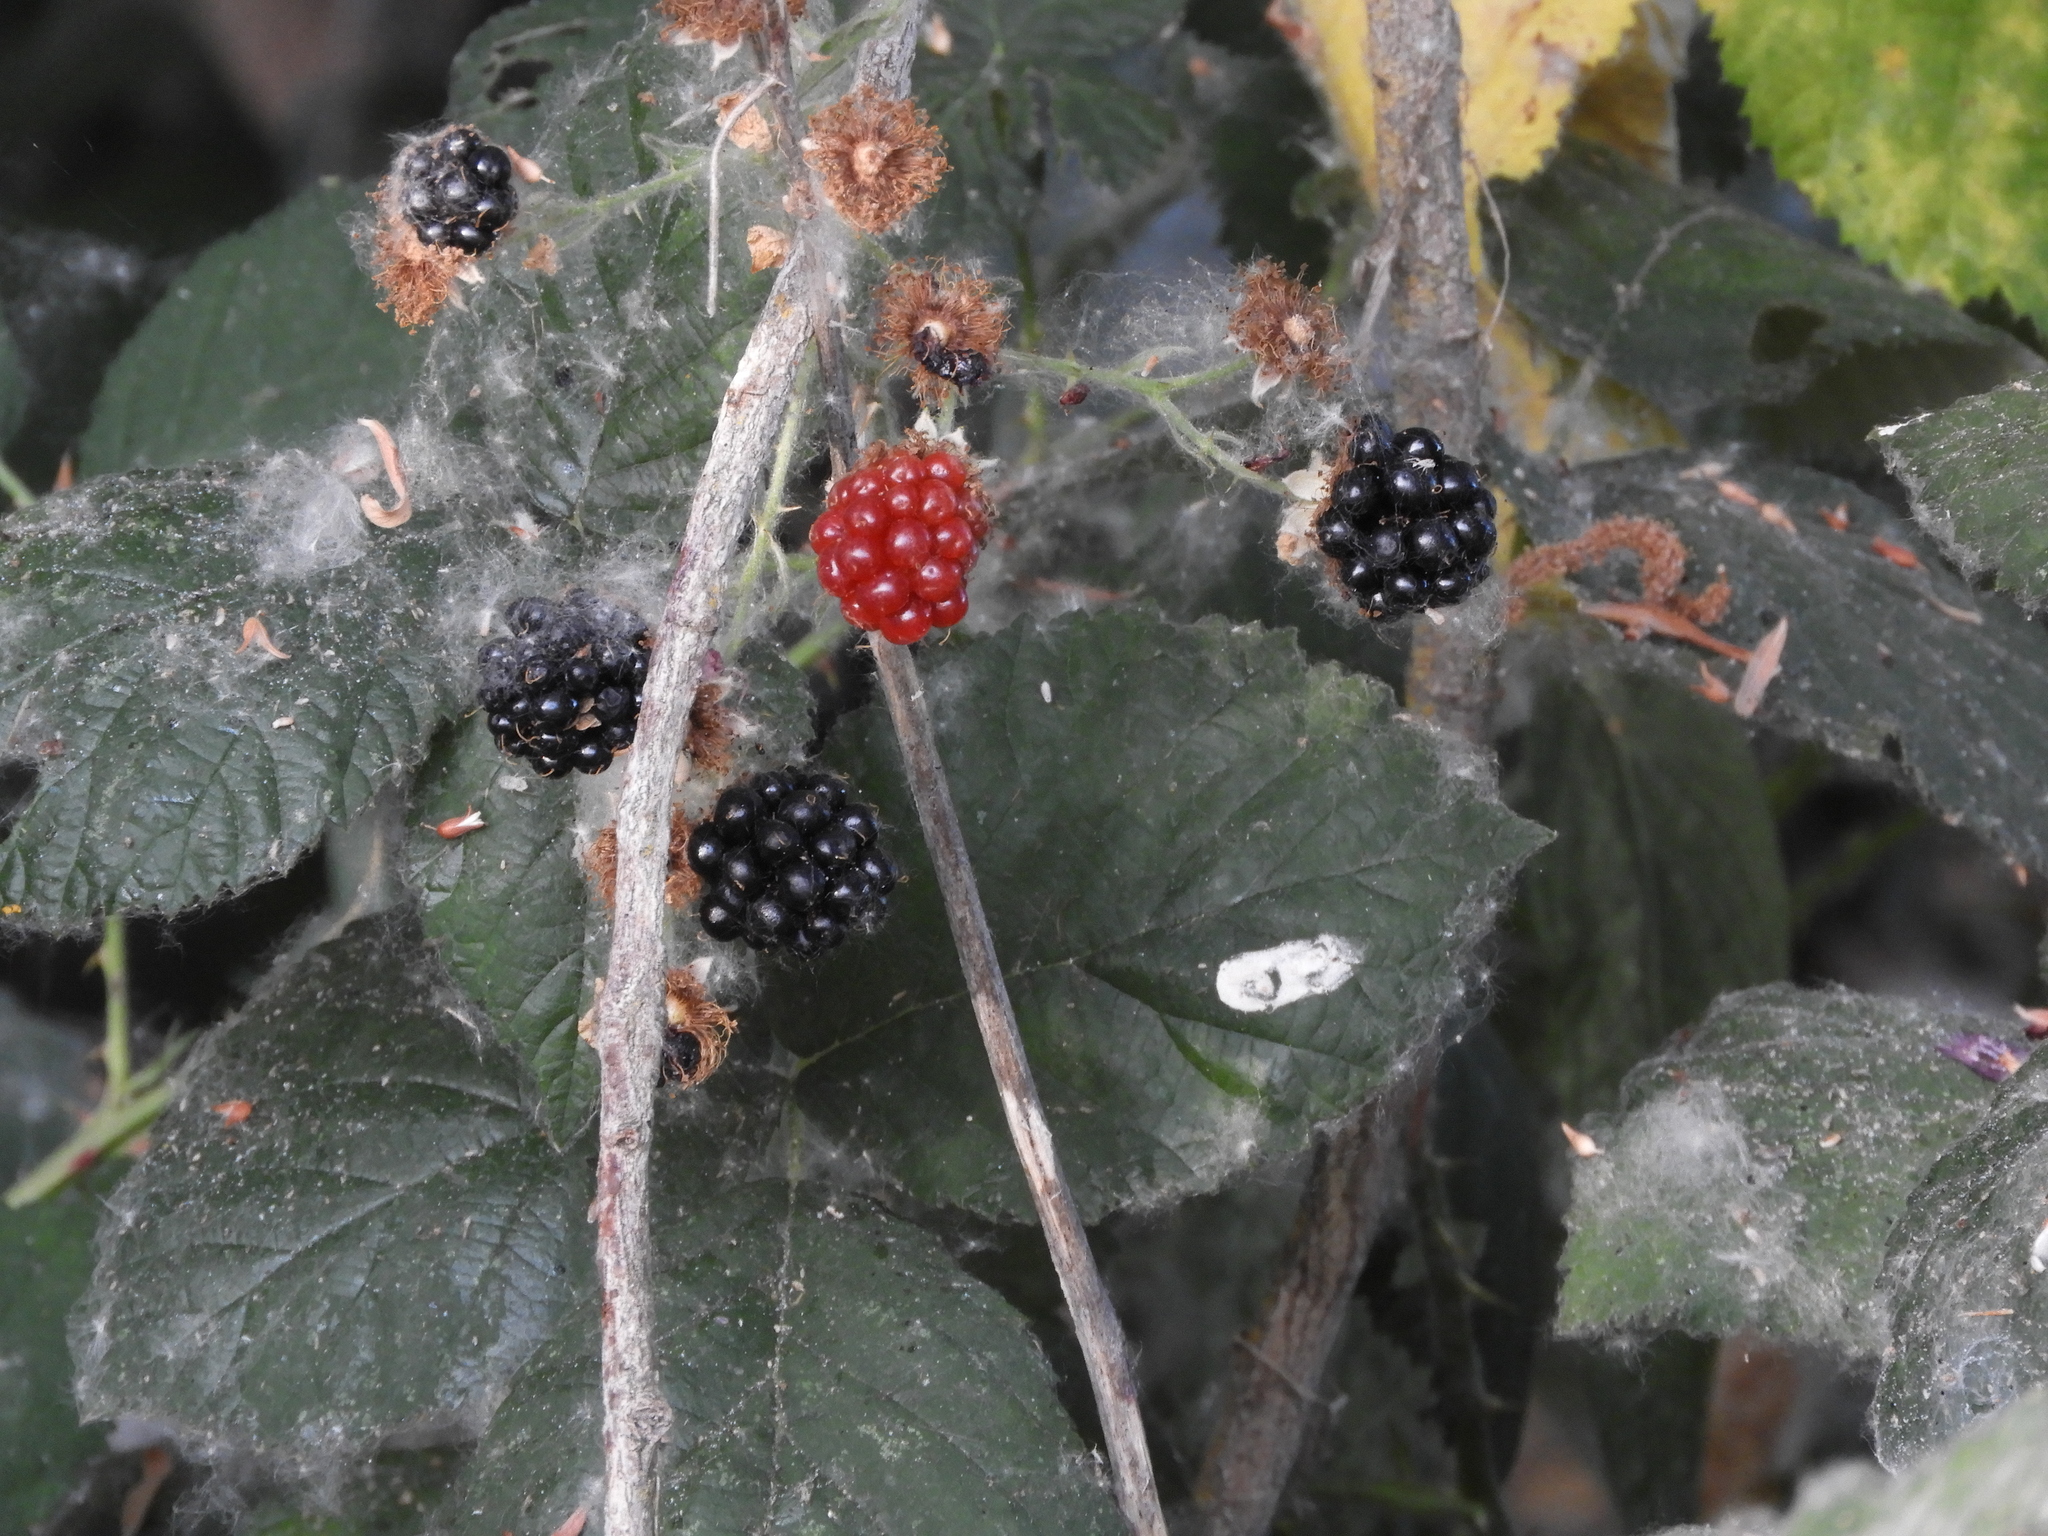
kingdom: Plantae
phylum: Tracheophyta
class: Magnoliopsida
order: Rosales
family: Rosaceae
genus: Rubus
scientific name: Rubus armeniacus
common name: Himalayan blackberry
